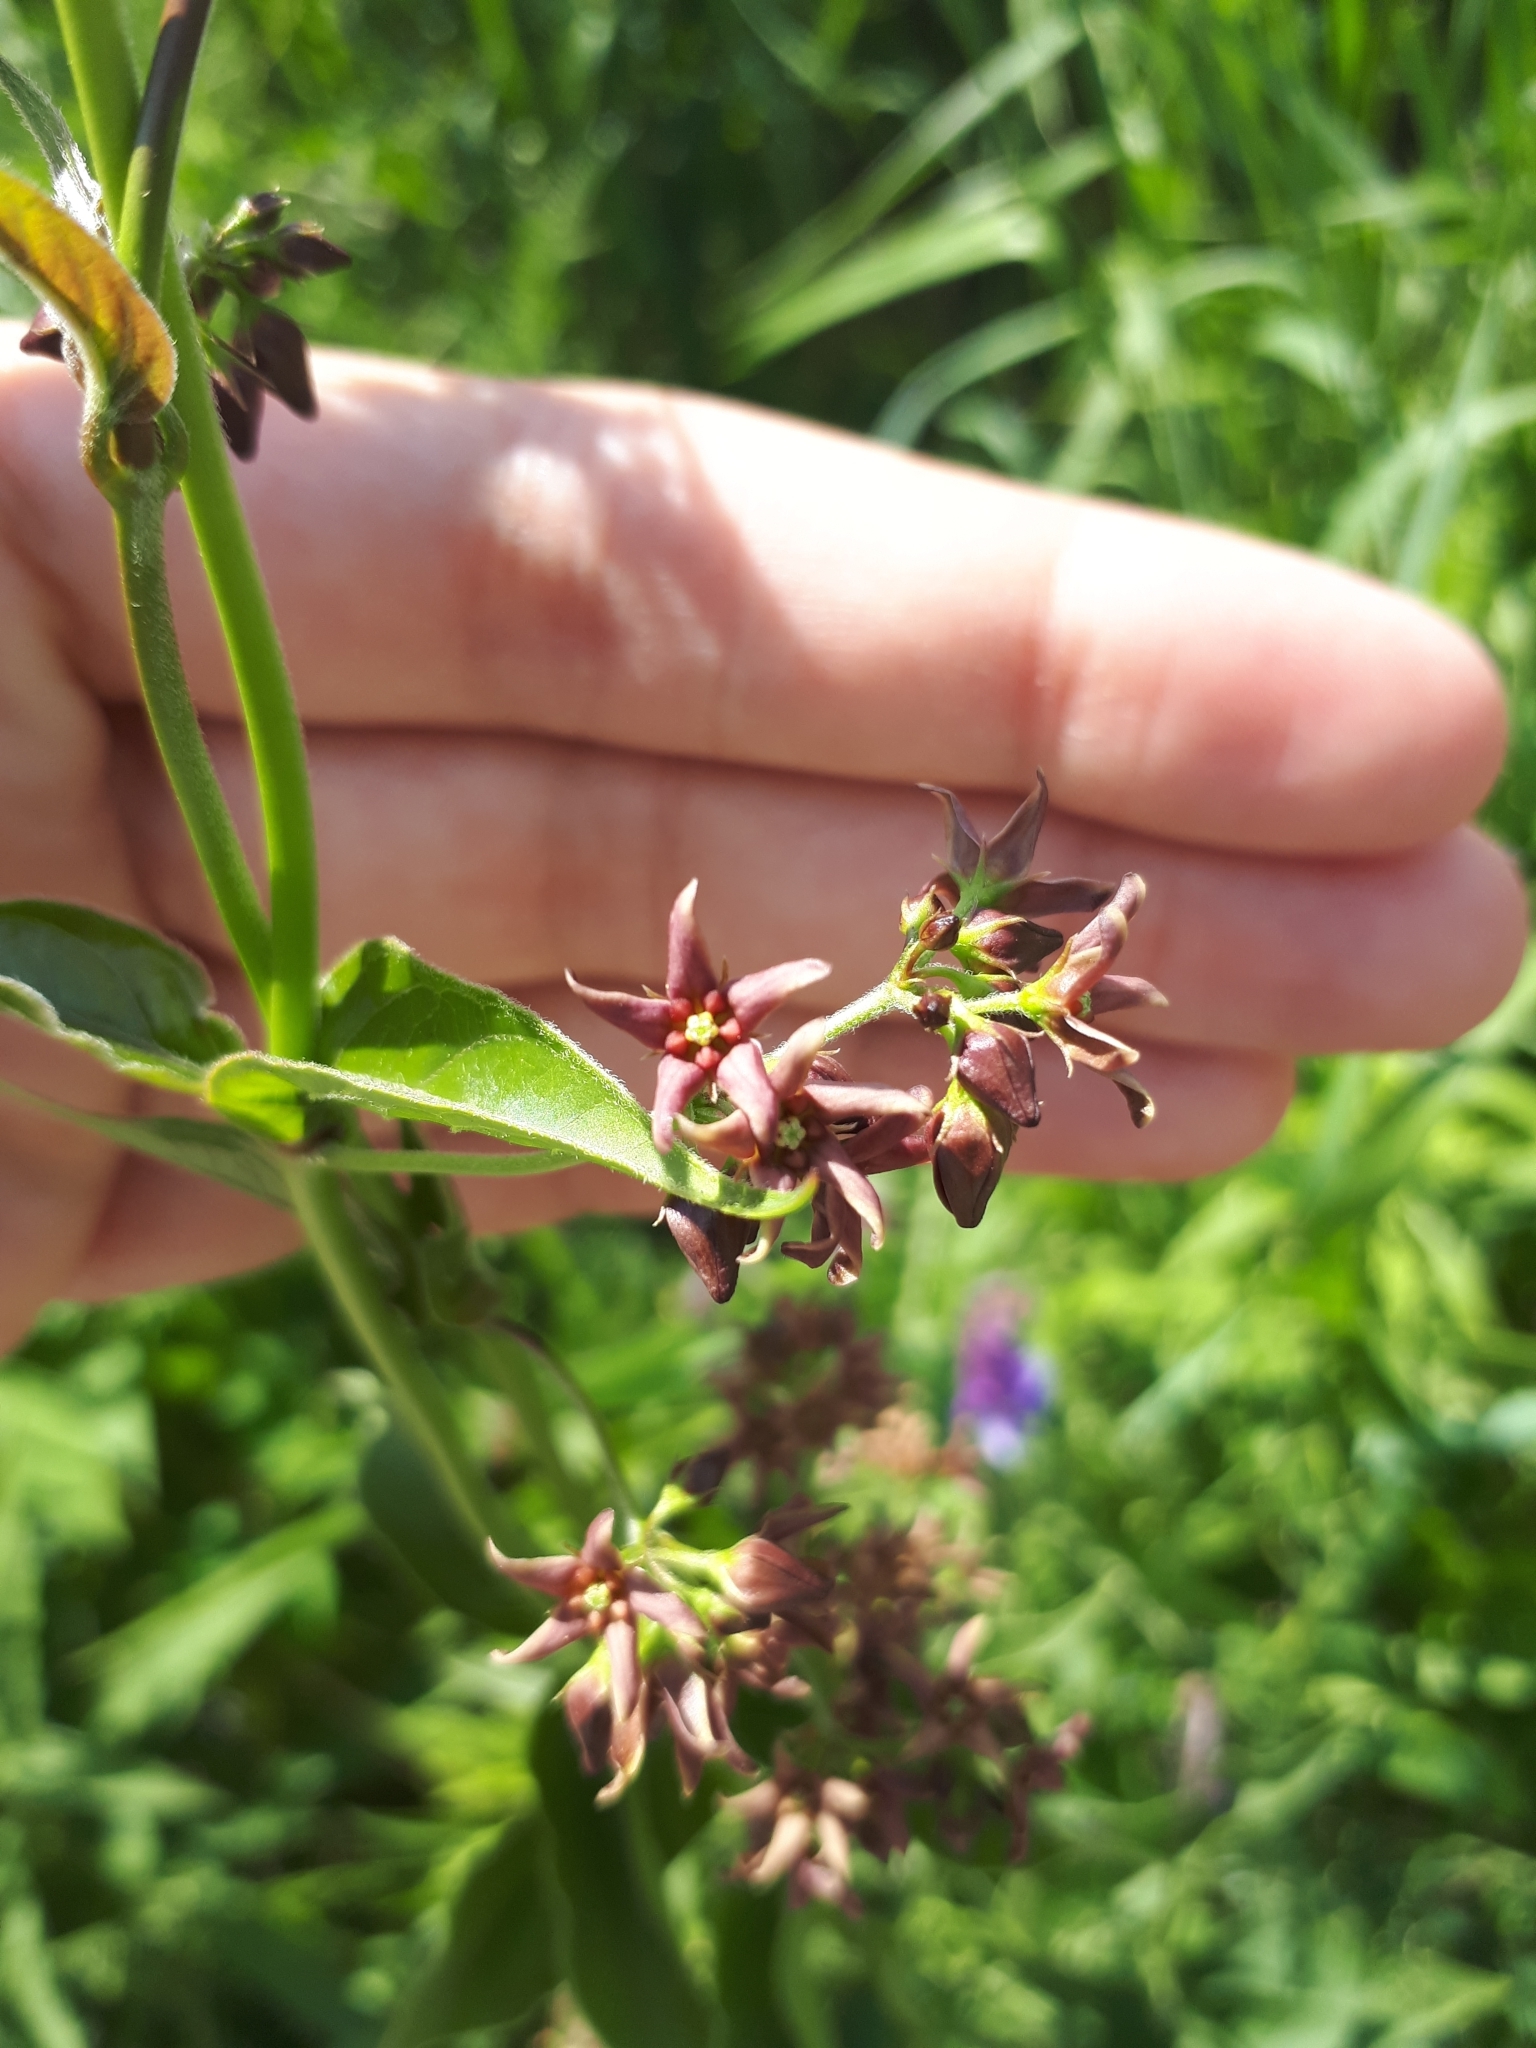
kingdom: Plantae
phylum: Tracheophyta
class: Magnoliopsida
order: Gentianales
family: Apocynaceae
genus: Vincetoxicum
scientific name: Vincetoxicum rossicum
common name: Dog-strangling vine
